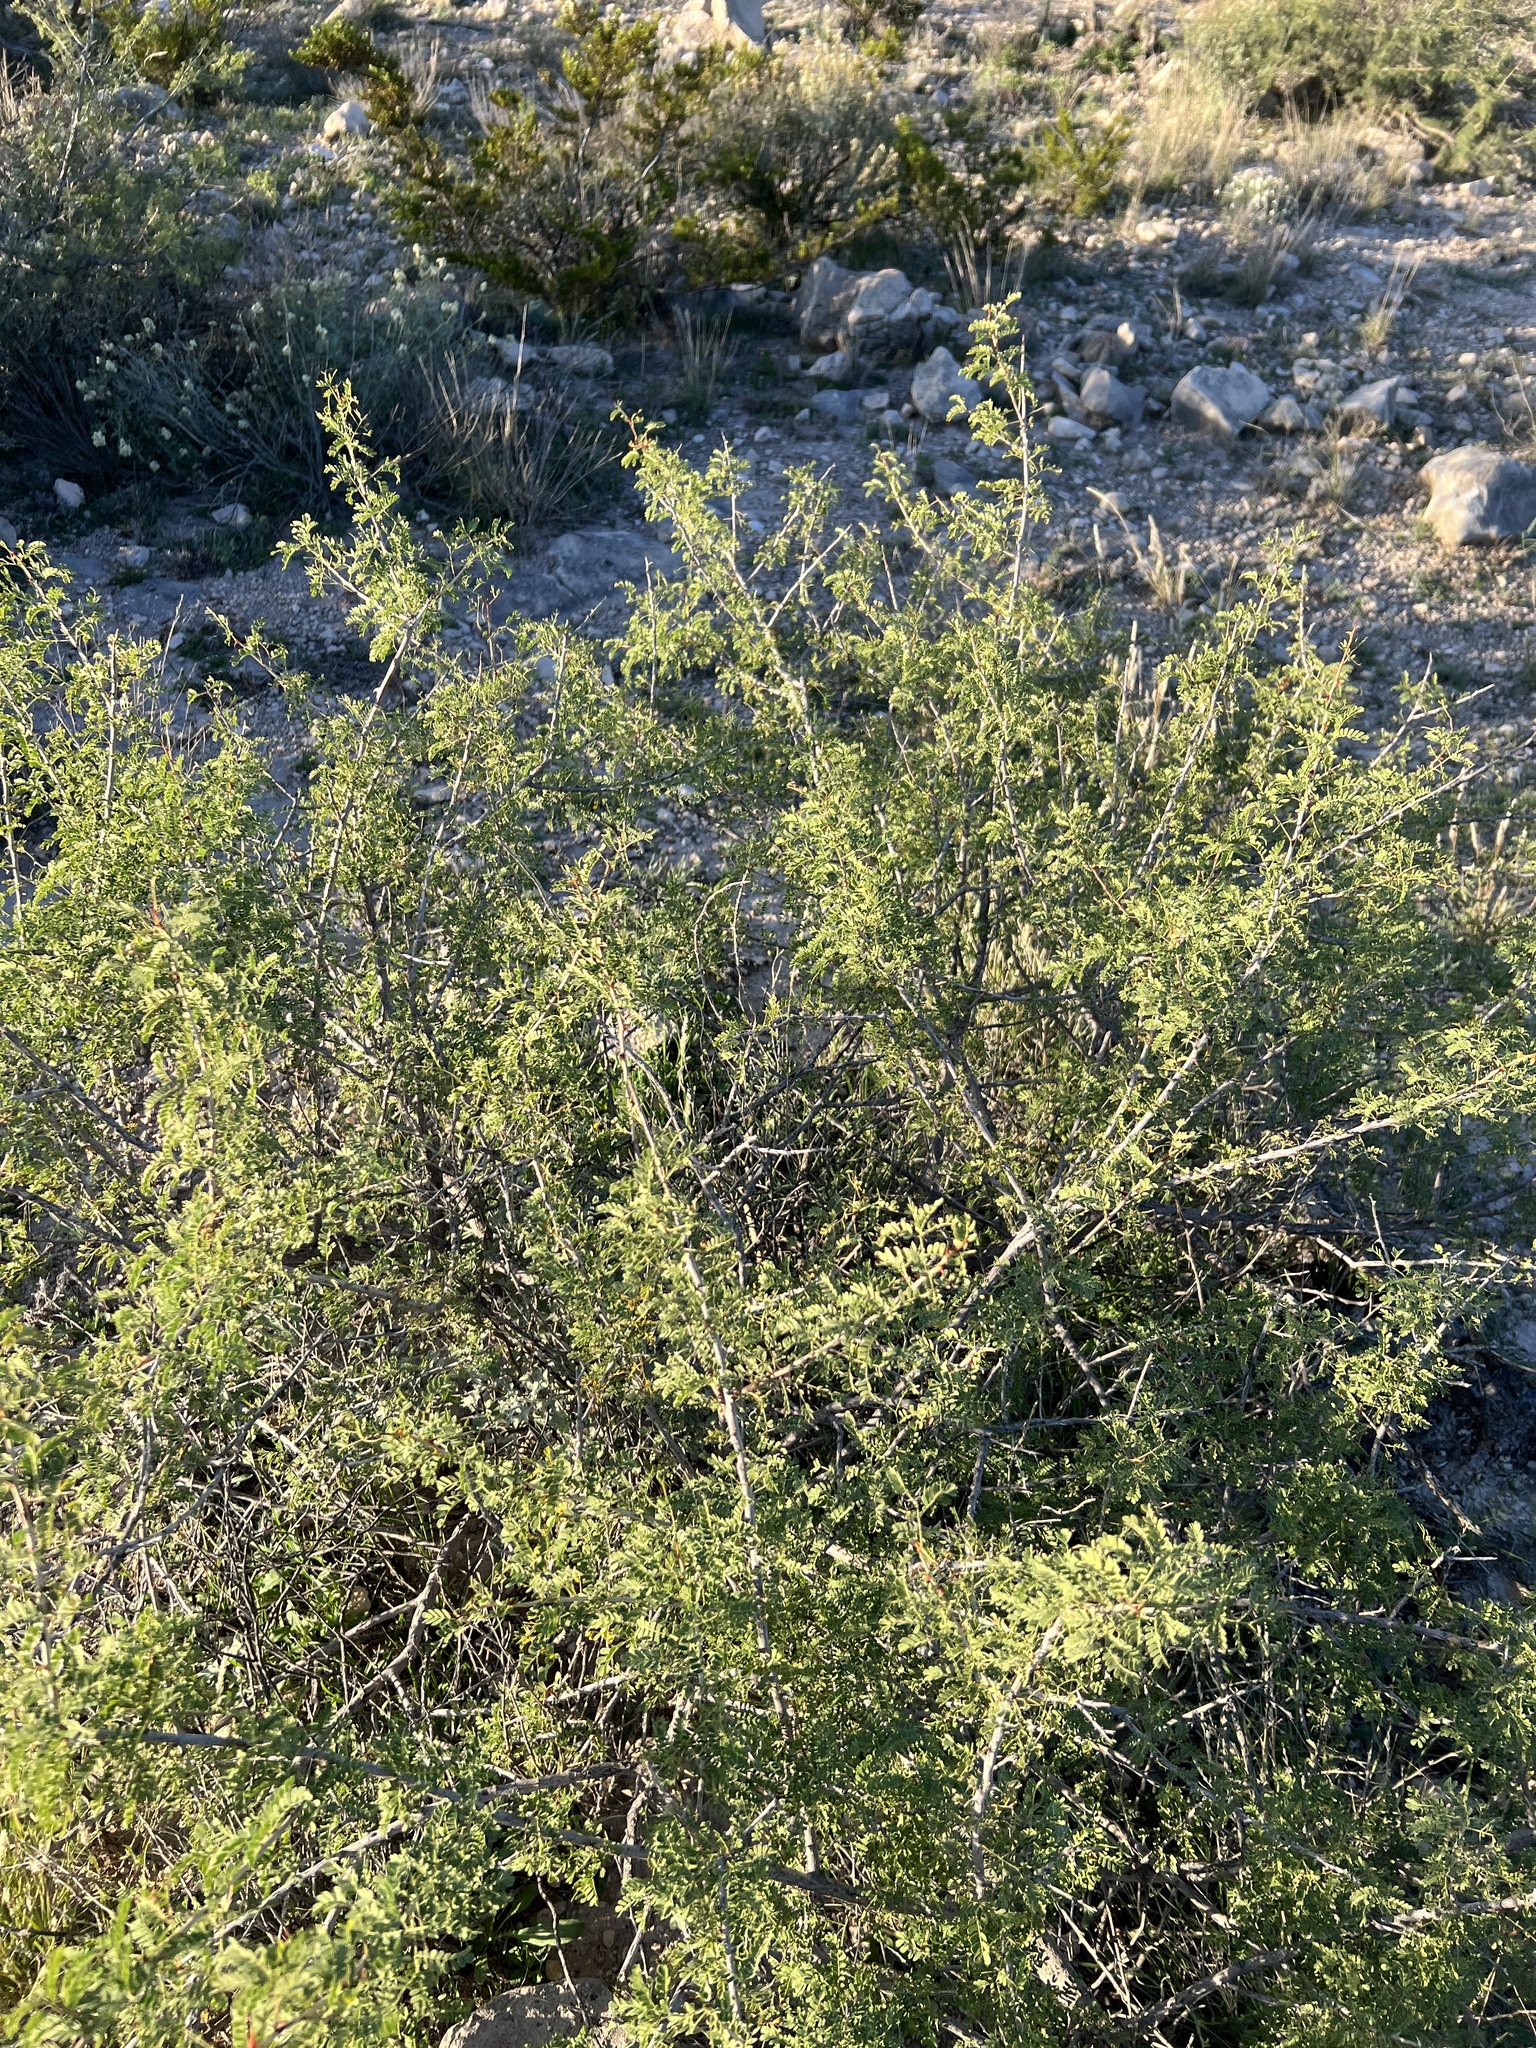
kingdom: Plantae
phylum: Tracheophyta
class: Magnoliopsida
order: Fabales
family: Fabaceae
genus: Senegalia
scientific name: Senegalia greggii
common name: Texas-mimosa
